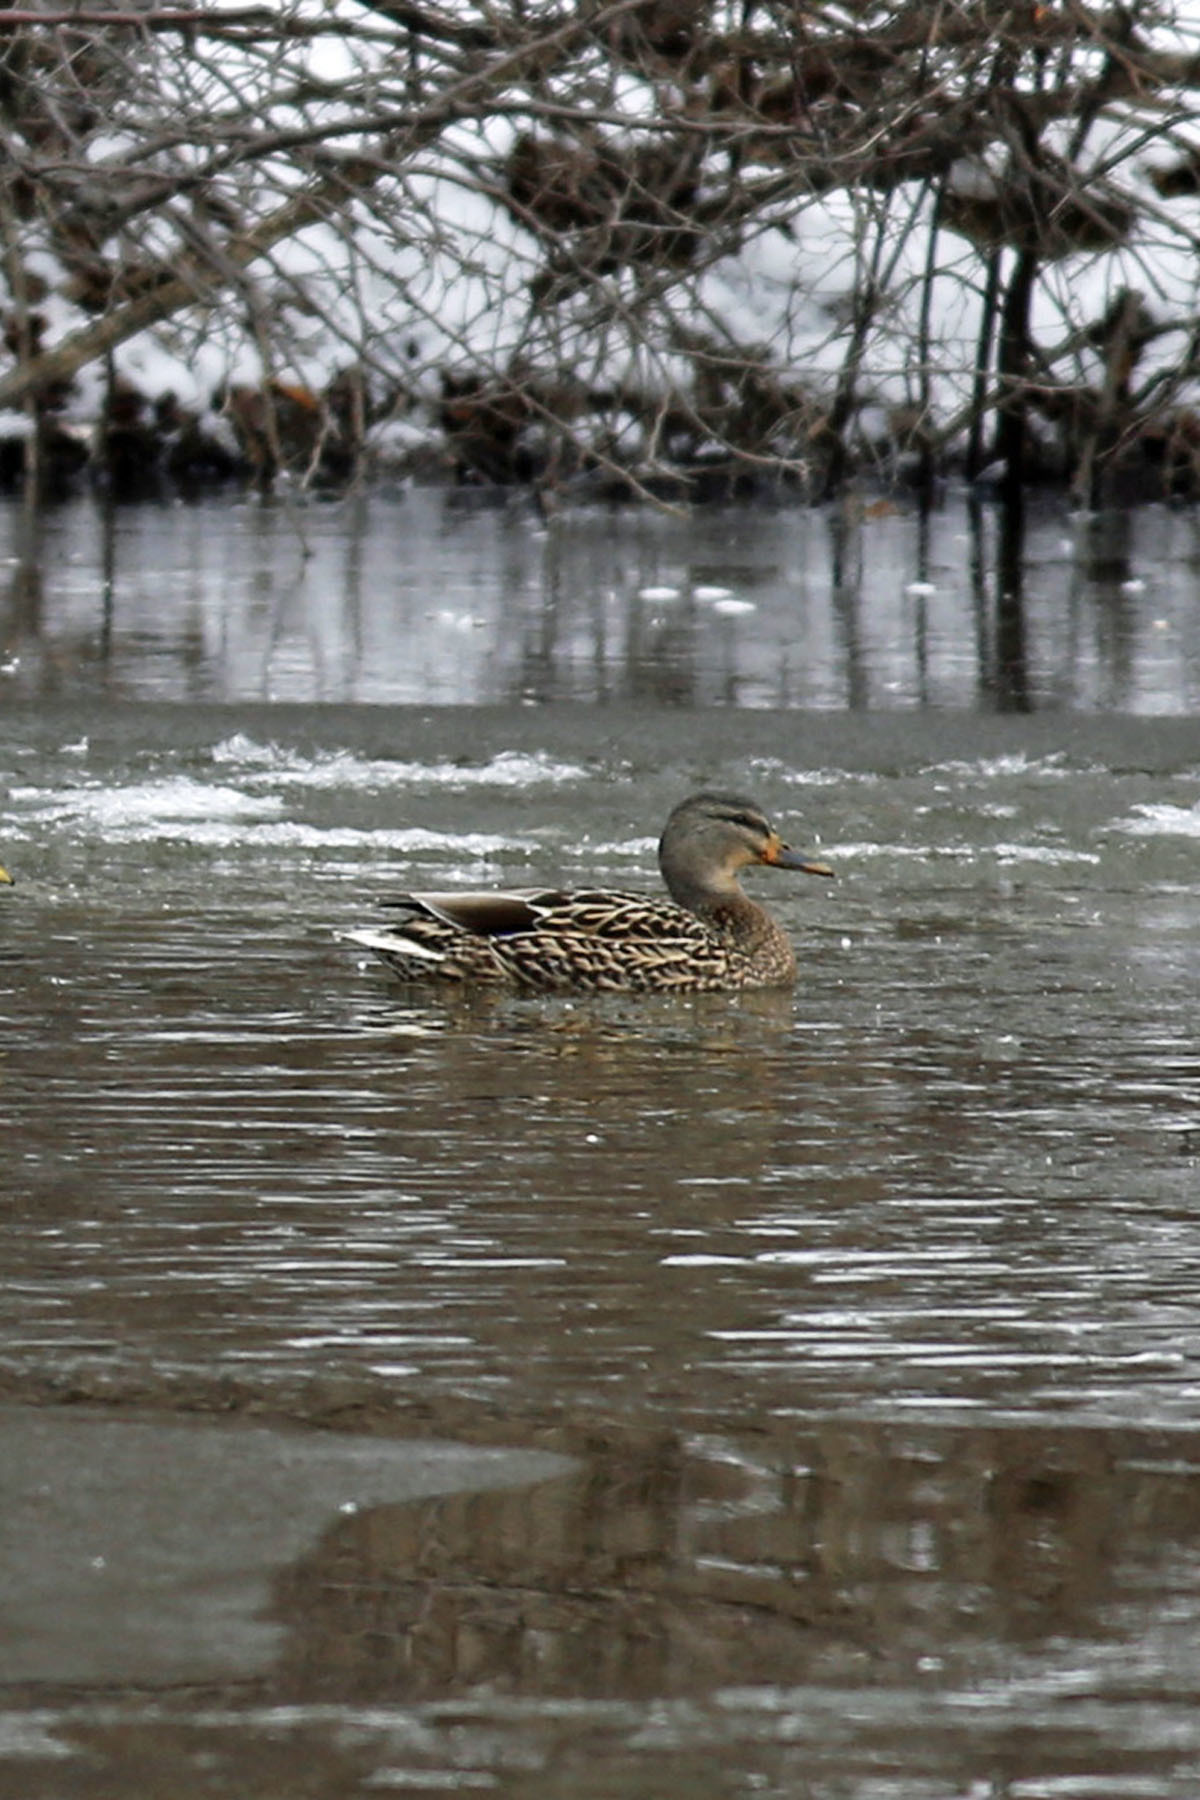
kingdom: Animalia
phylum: Chordata
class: Aves
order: Anseriformes
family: Anatidae
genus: Anas
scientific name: Anas platyrhynchos
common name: Mallard
